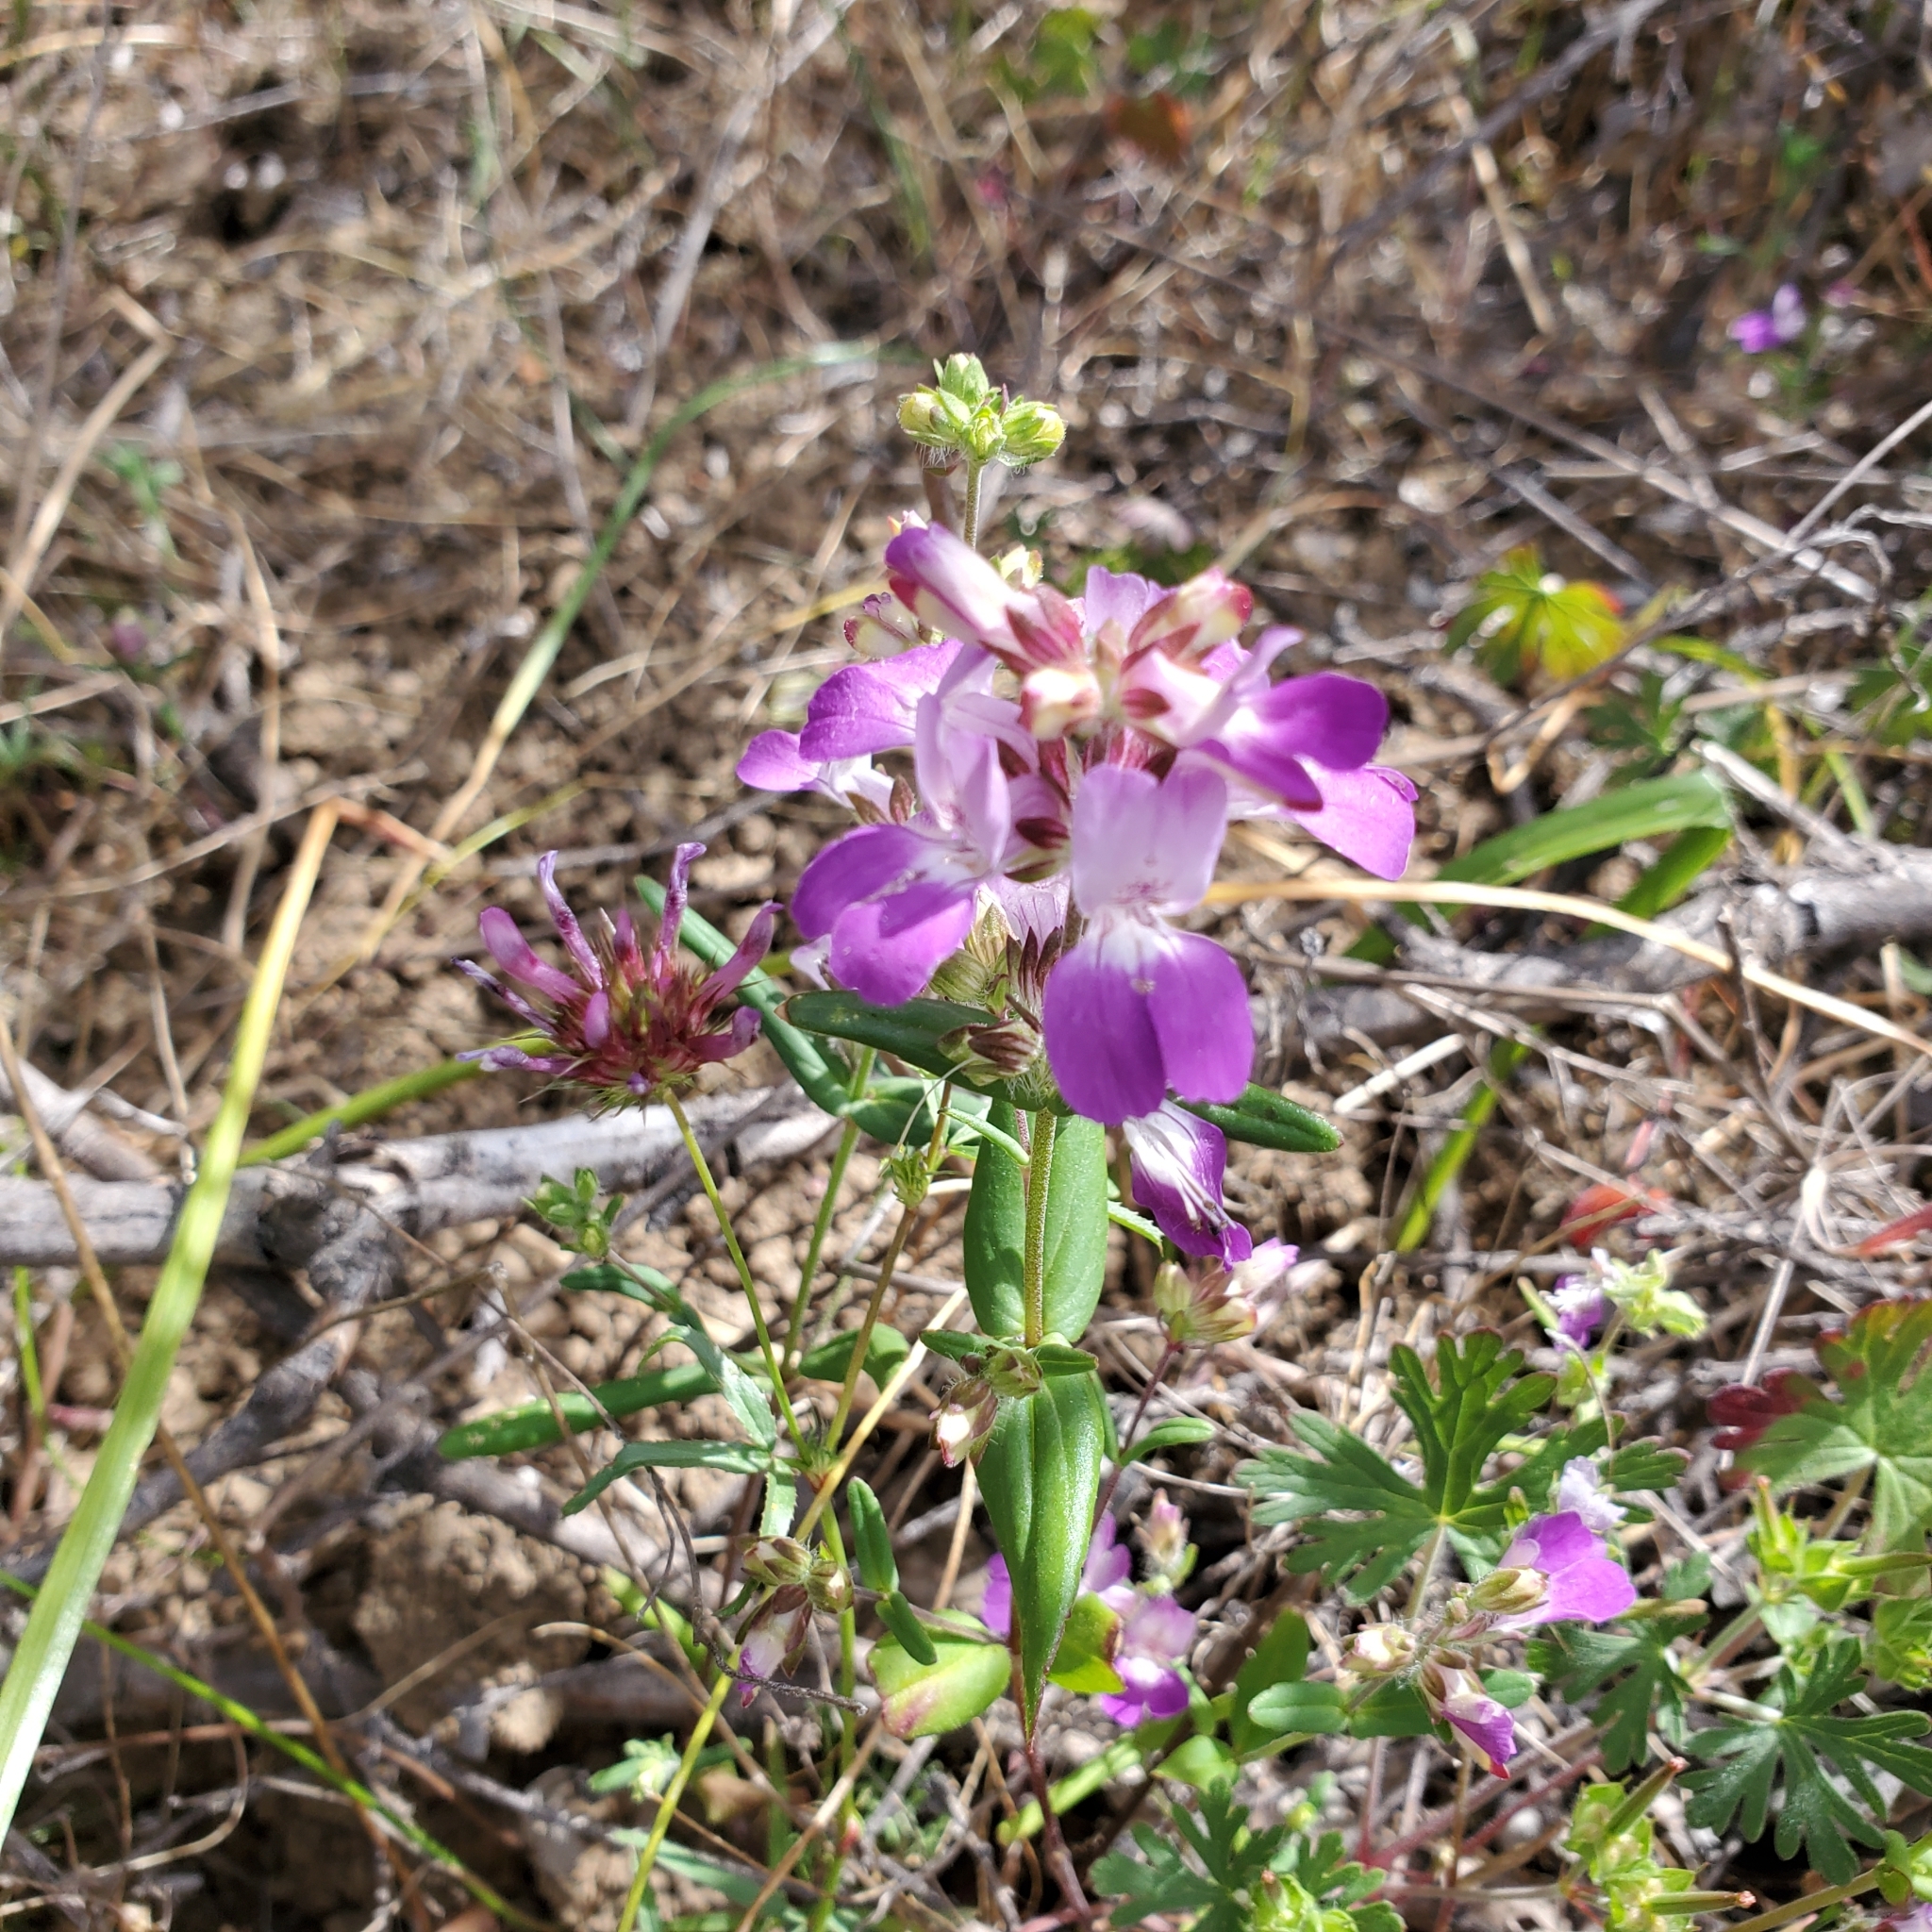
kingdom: Plantae
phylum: Tracheophyta
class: Magnoliopsida
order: Lamiales
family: Plantaginaceae
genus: Collinsia
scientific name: Collinsia heterophylla
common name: Chinese-houses
